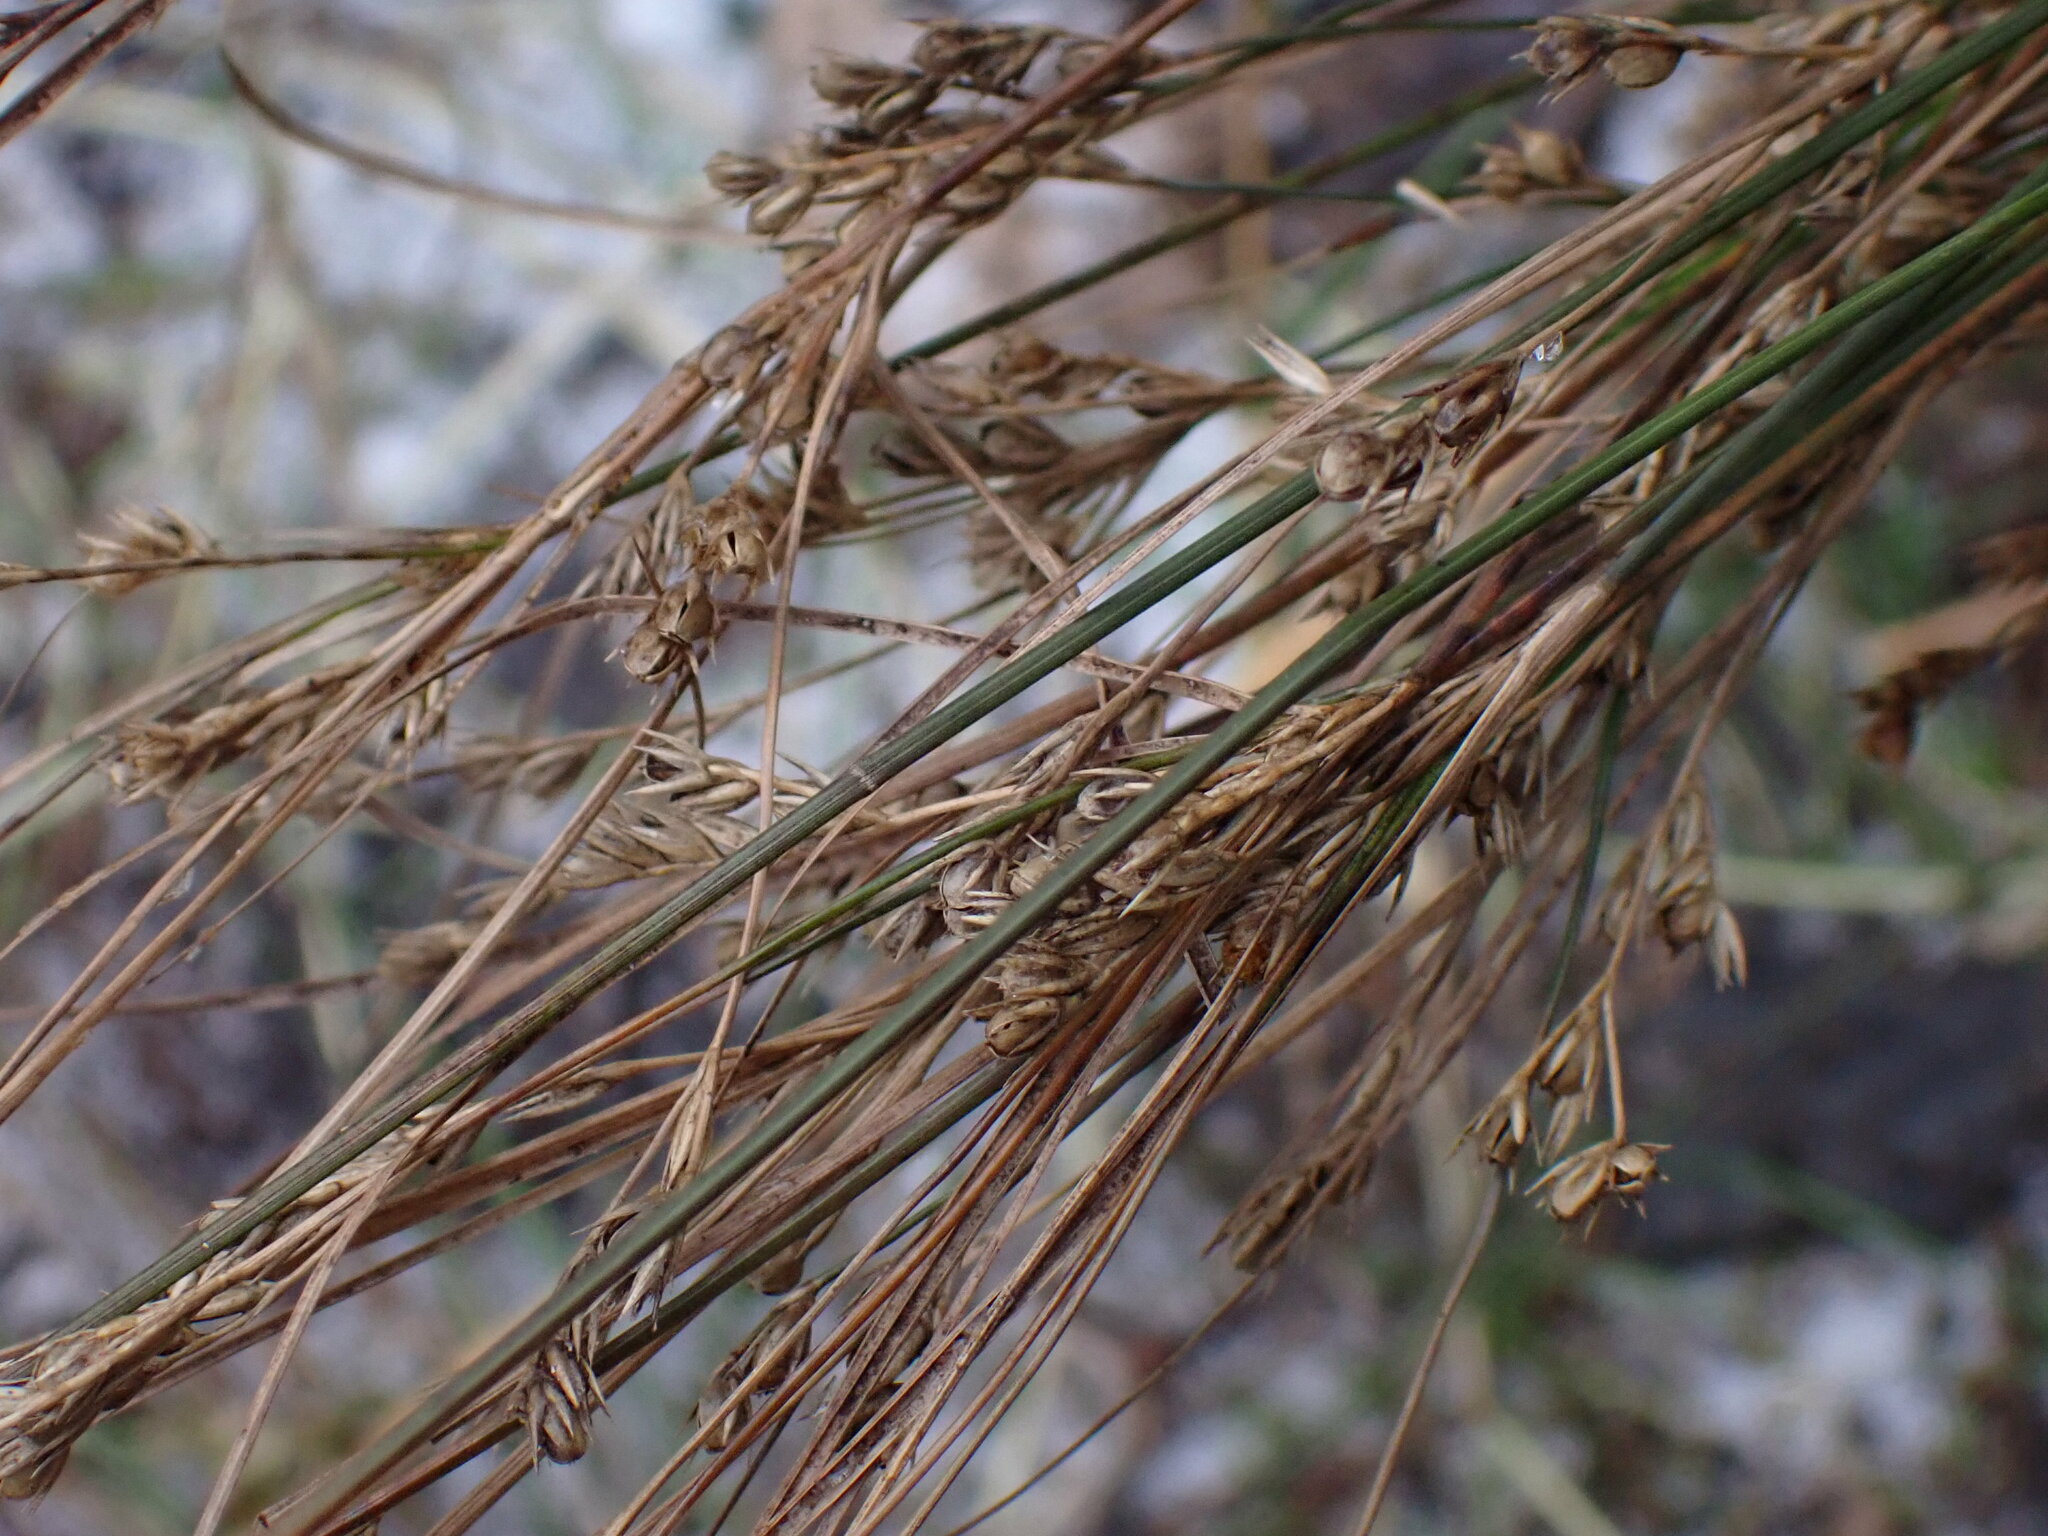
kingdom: Plantae
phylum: Tracheophyta
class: Liliopsida
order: Poales
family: Juncaceae
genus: Juncus
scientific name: Juncus tenuis
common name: Slender rush
